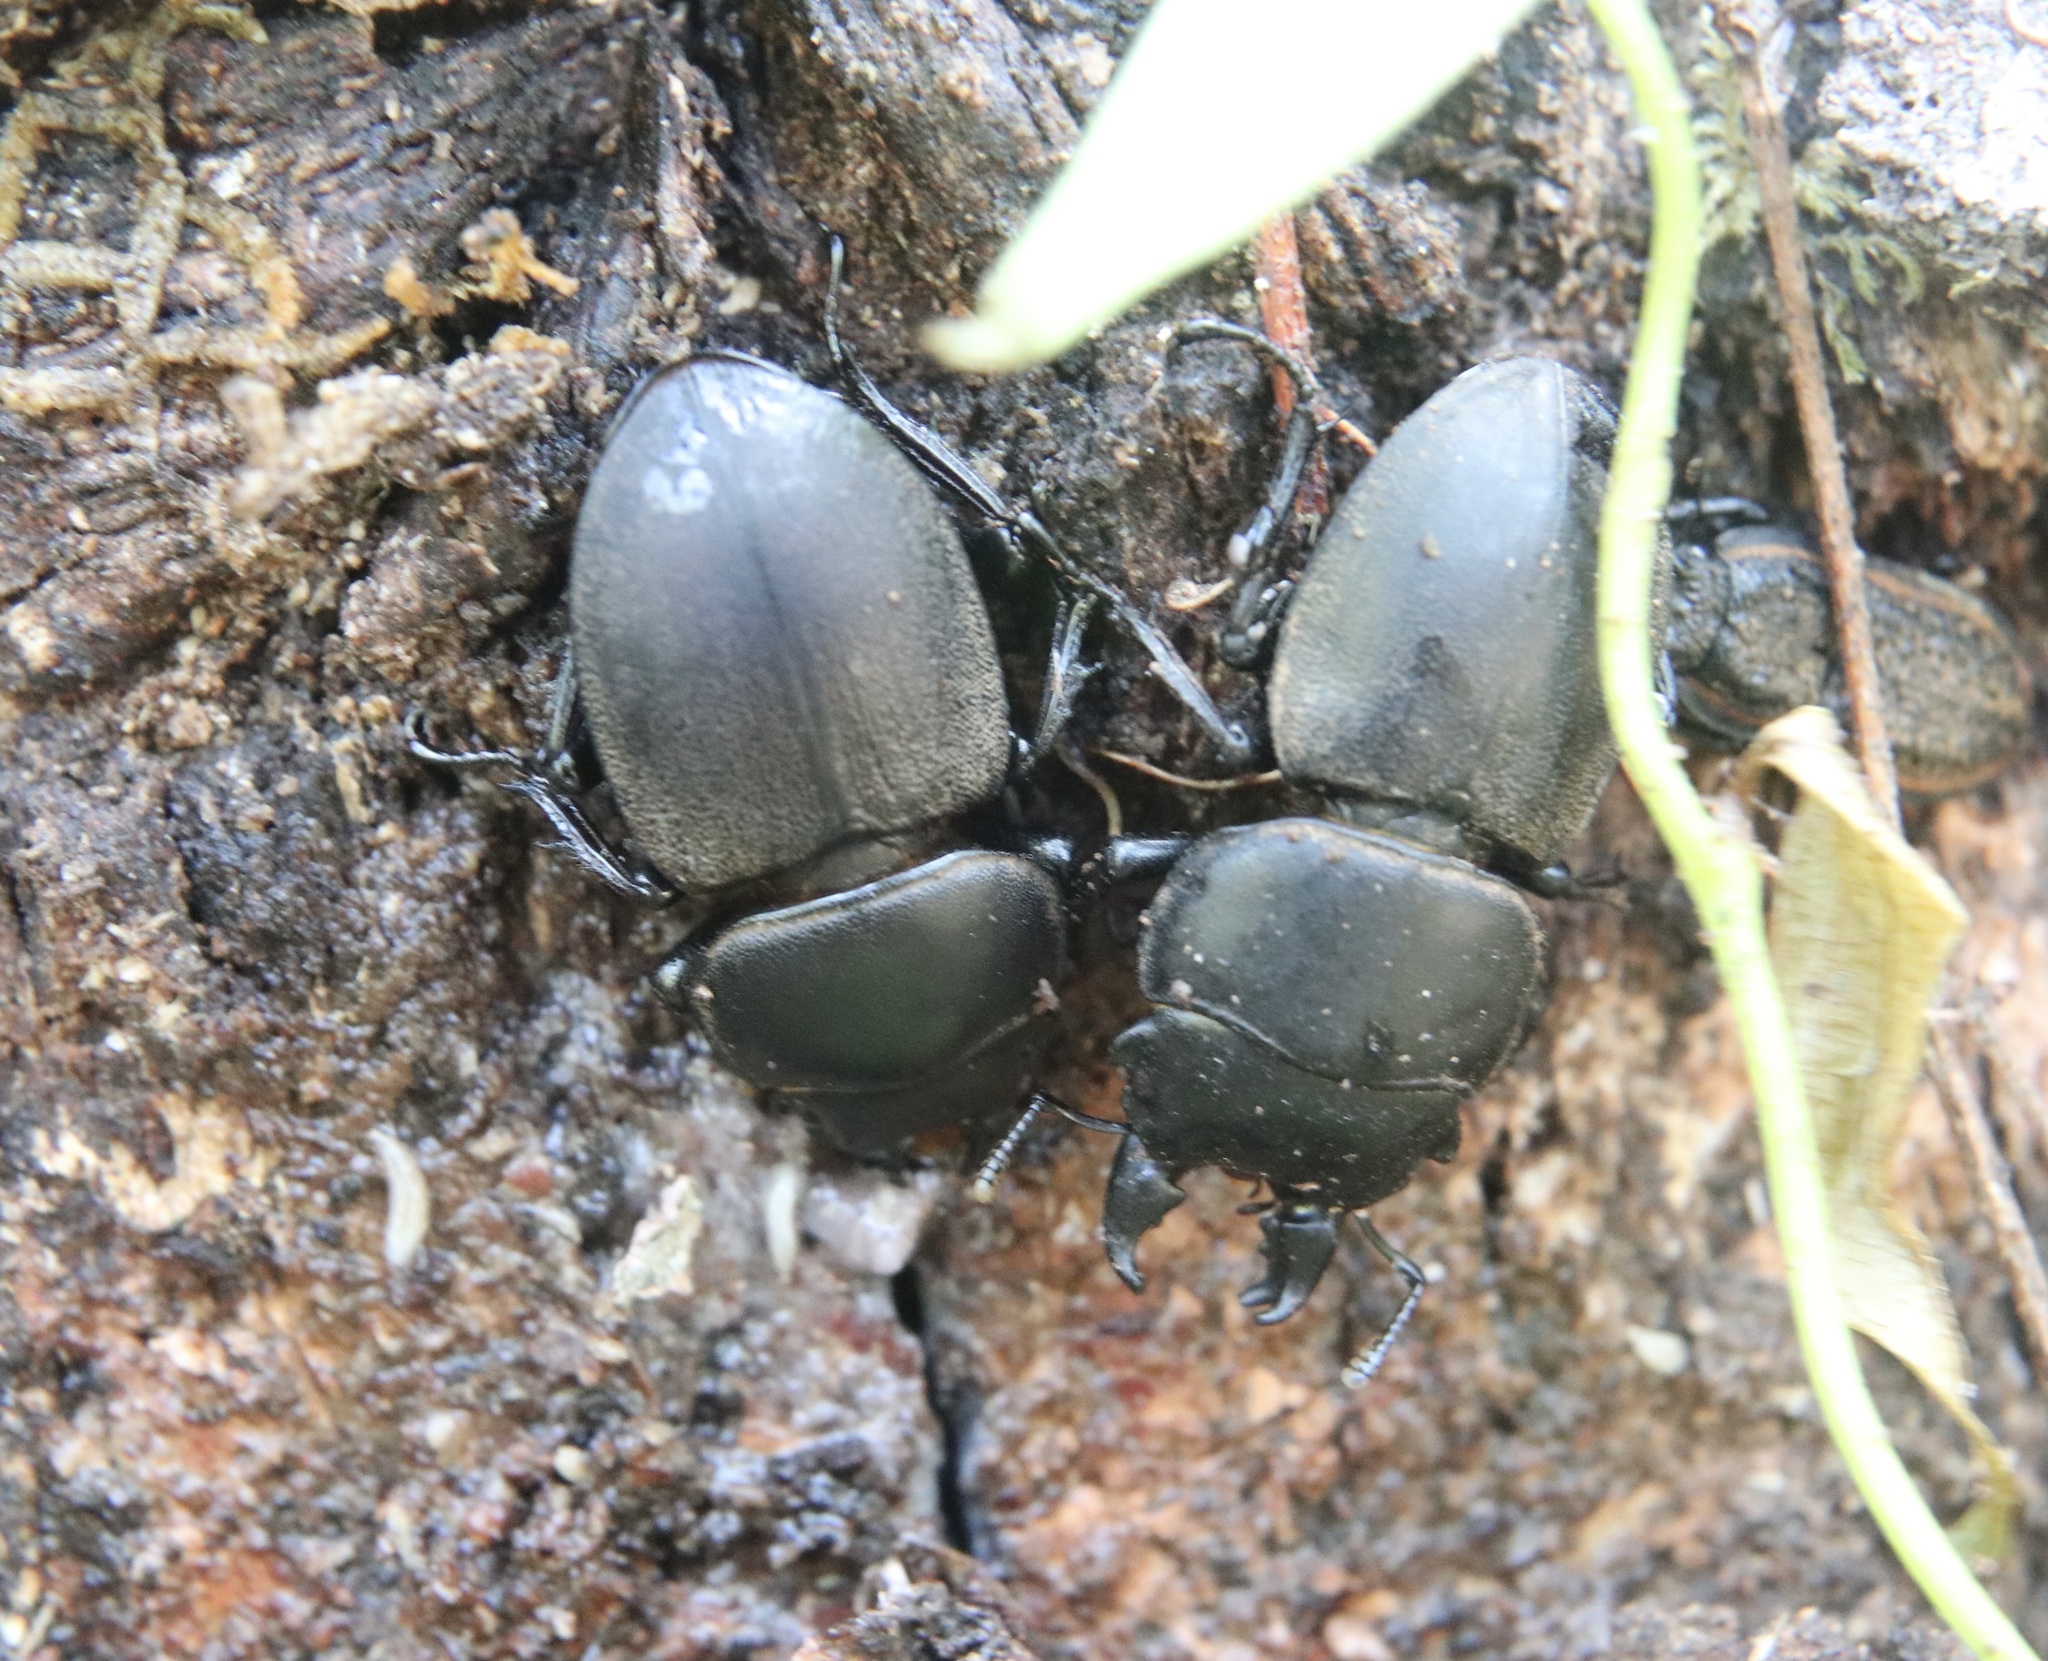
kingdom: Animalia
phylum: Arthropoda
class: Insecta
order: Coleoptera
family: Lucanidae
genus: Apterodorcus
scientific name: Apterodorcus bacchus
